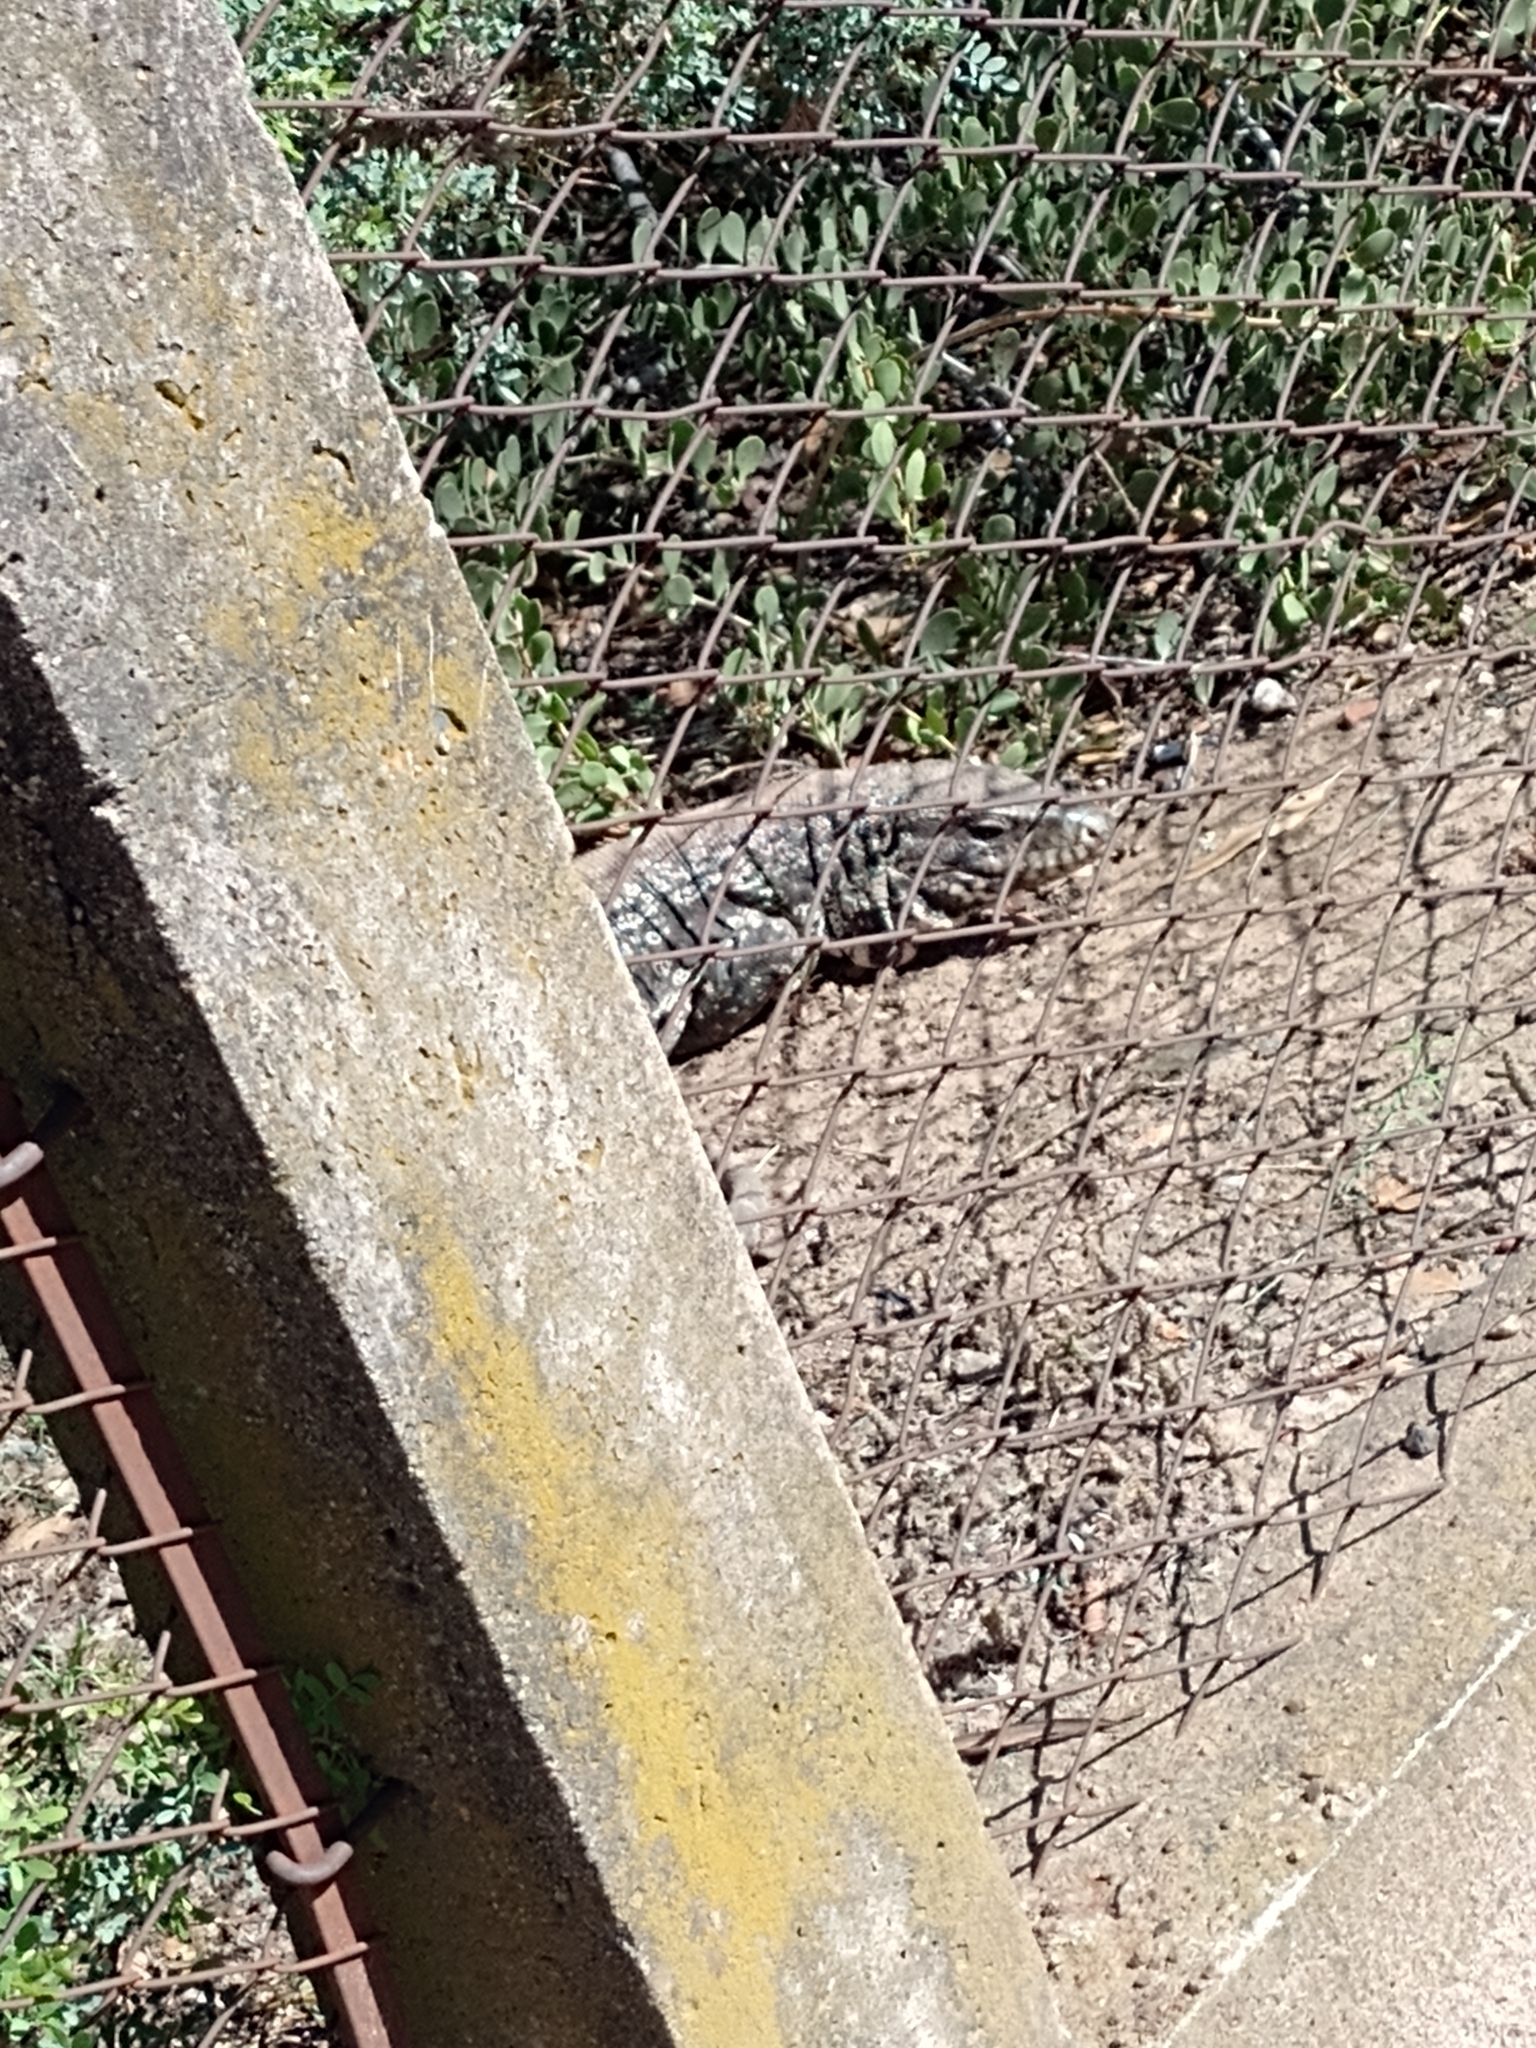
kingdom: Animalia
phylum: Chordata
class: Squamata
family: Teiidae
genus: Salvator
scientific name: Salvator merianae
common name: Argentine black and white tegu
